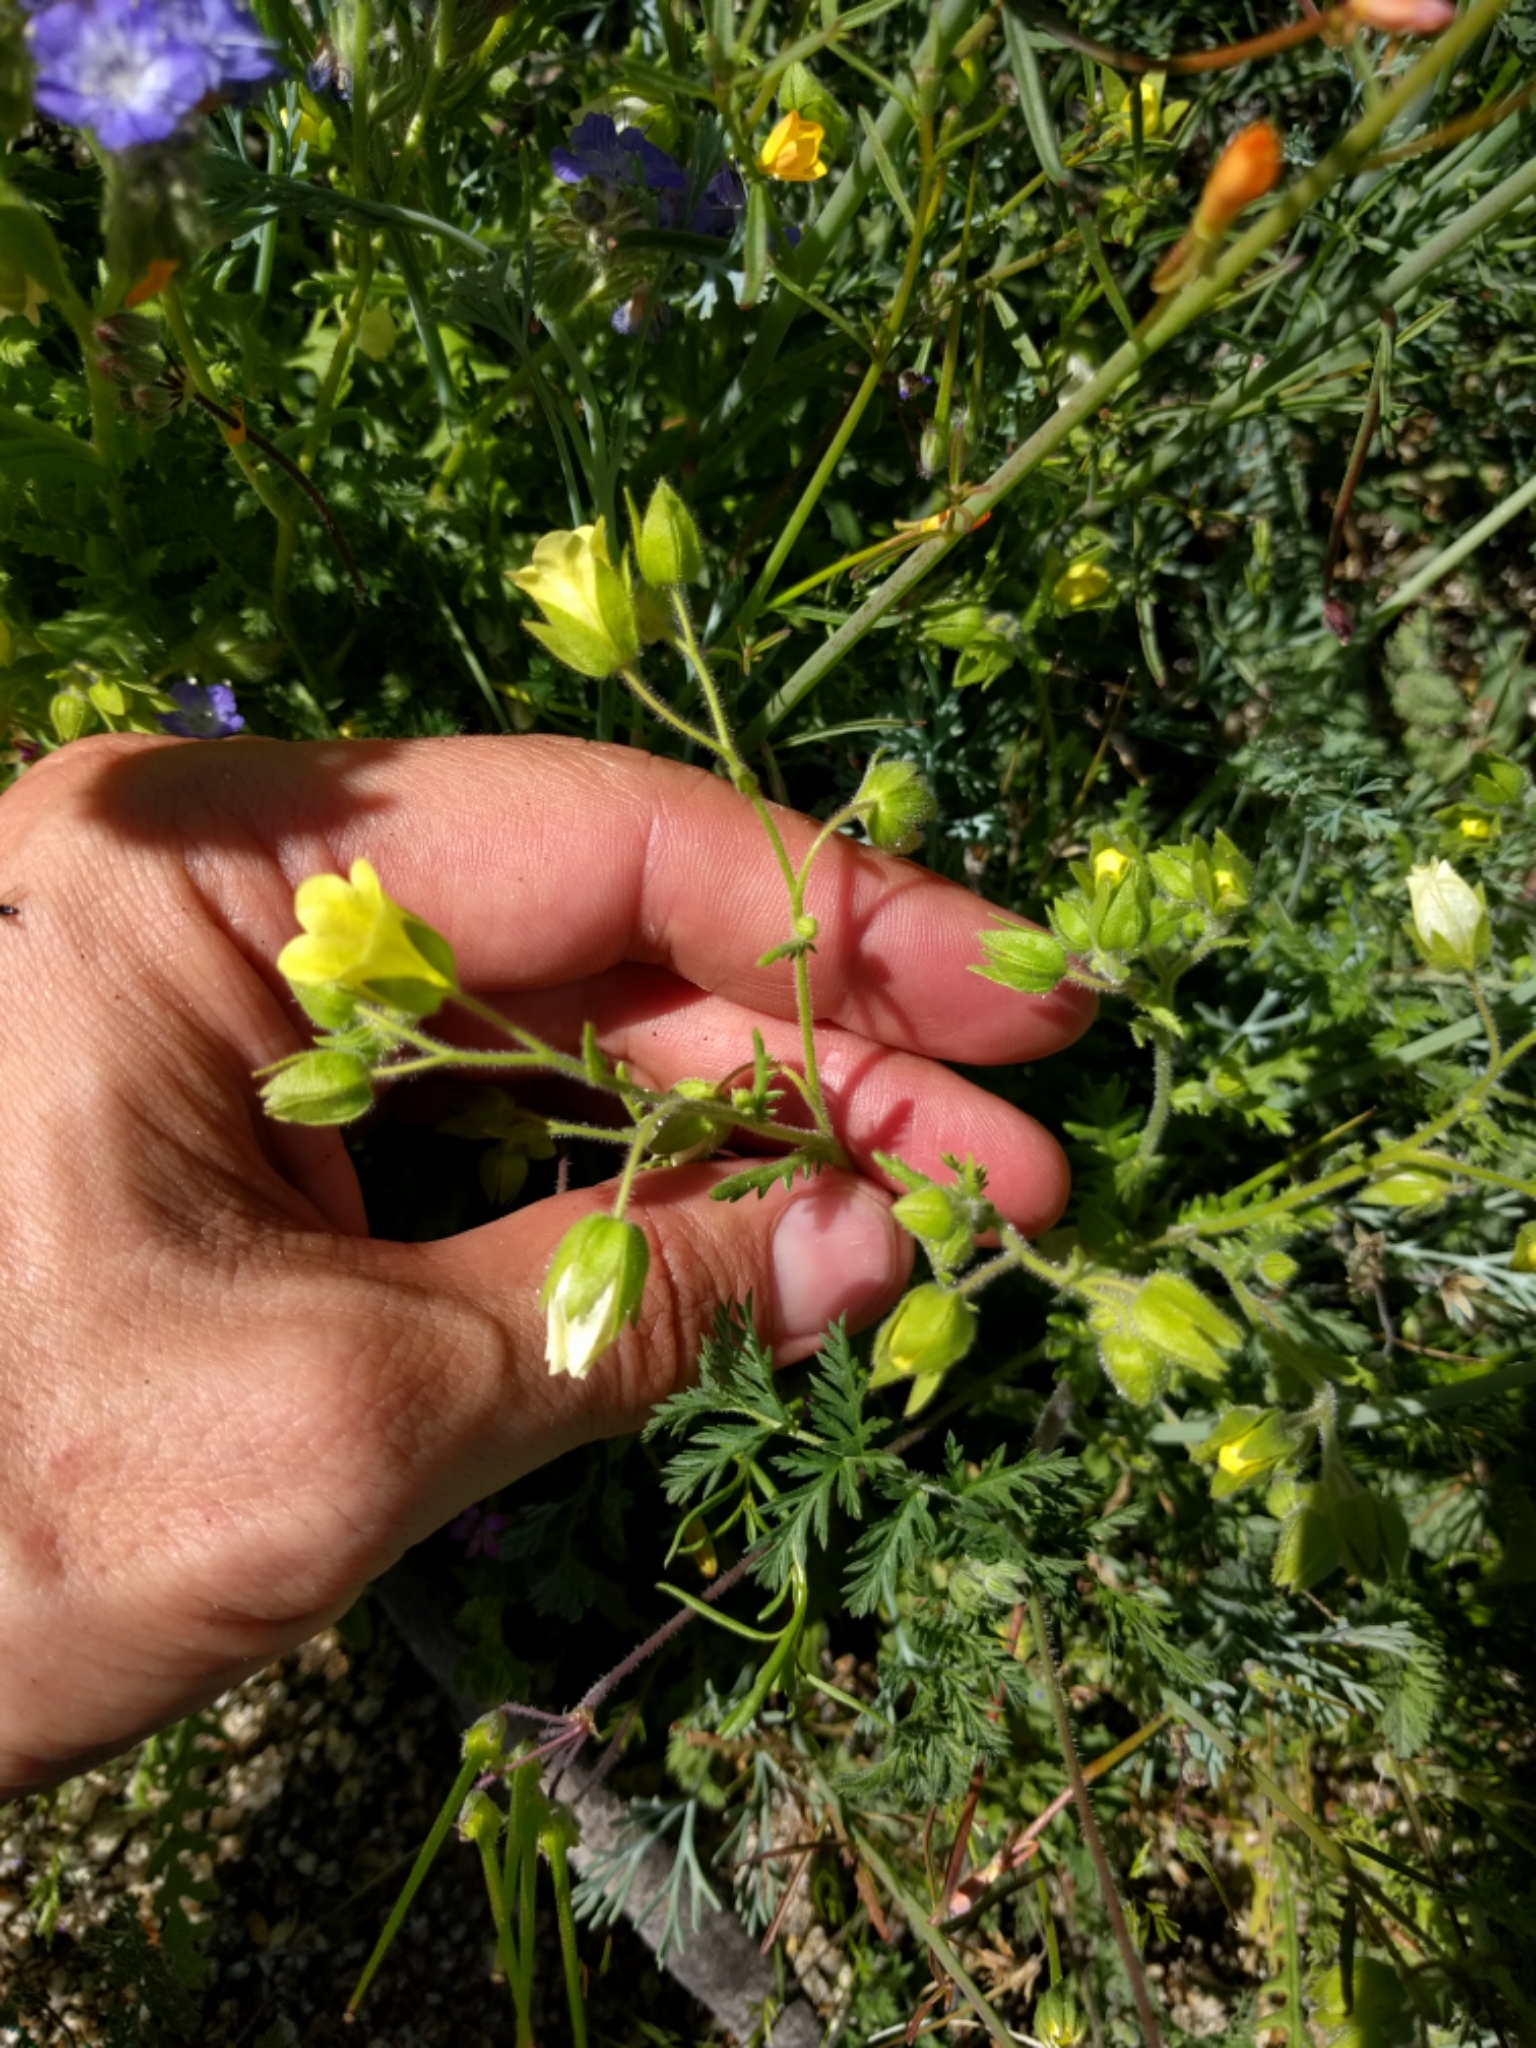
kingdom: Plantae
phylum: Tracheophyta
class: Magnoliopsida
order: Boraginales
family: Hydrophyllaceae
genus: Emmenanthe
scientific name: Emmenanthe penduliflora
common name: Whispering-bells
